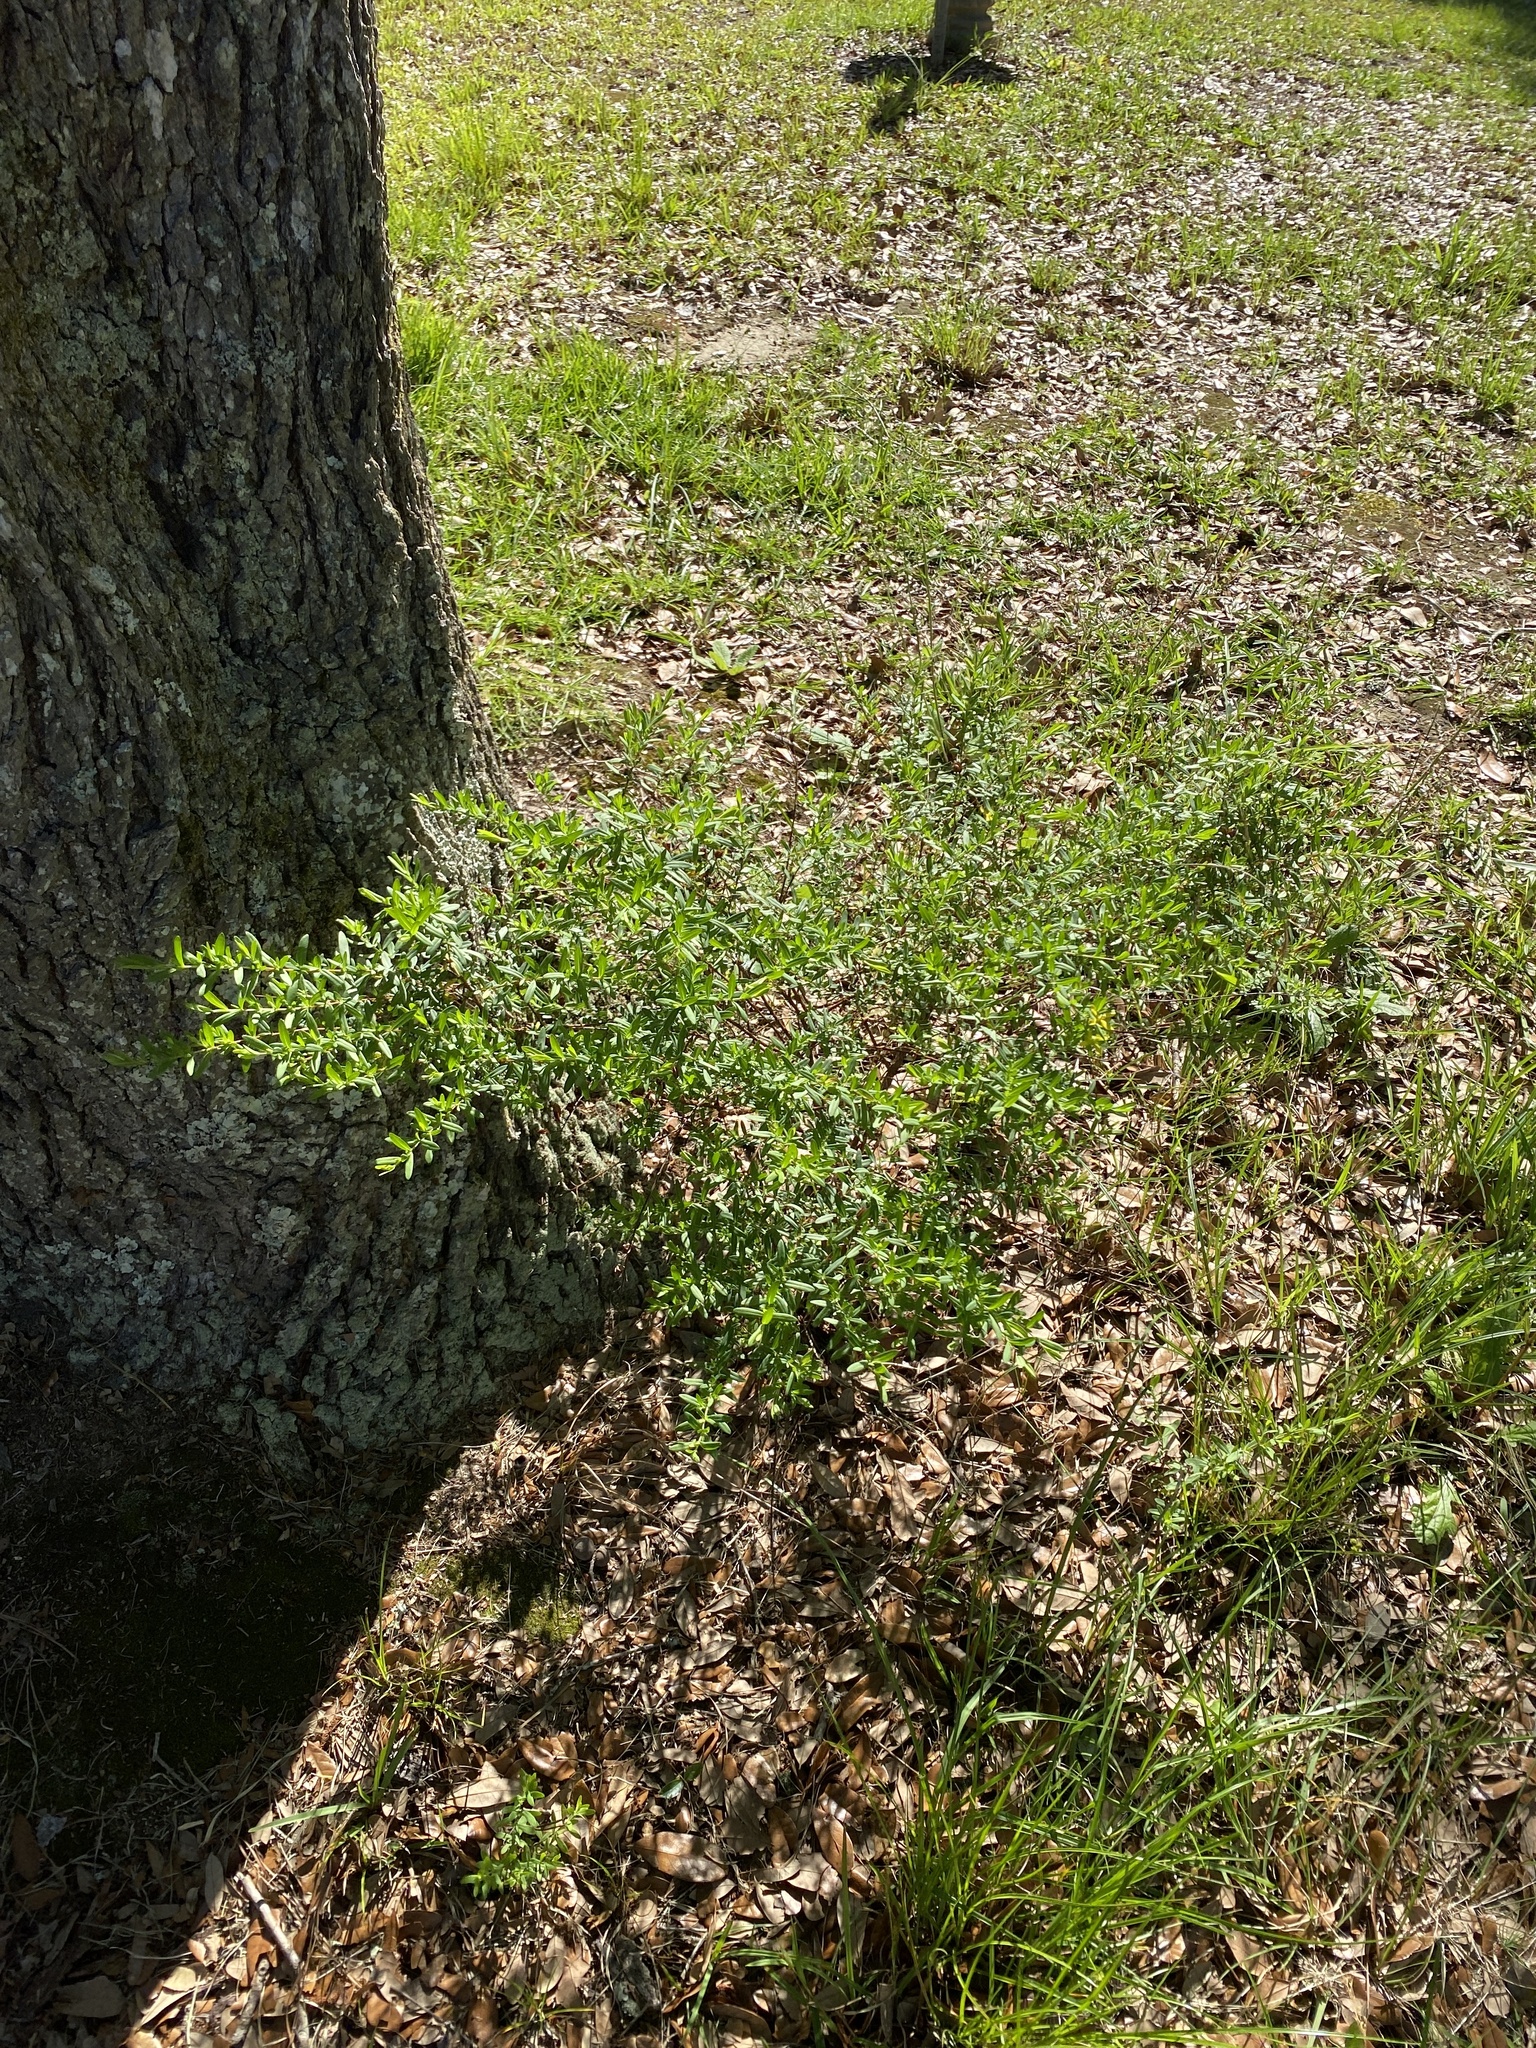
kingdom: Plantae
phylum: Tracheophyta
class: Magnoliopsida
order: Malpighiales
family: Hypericaceae
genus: Hypericum
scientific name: Hypericum hypericoides
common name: St. andrew's cross
